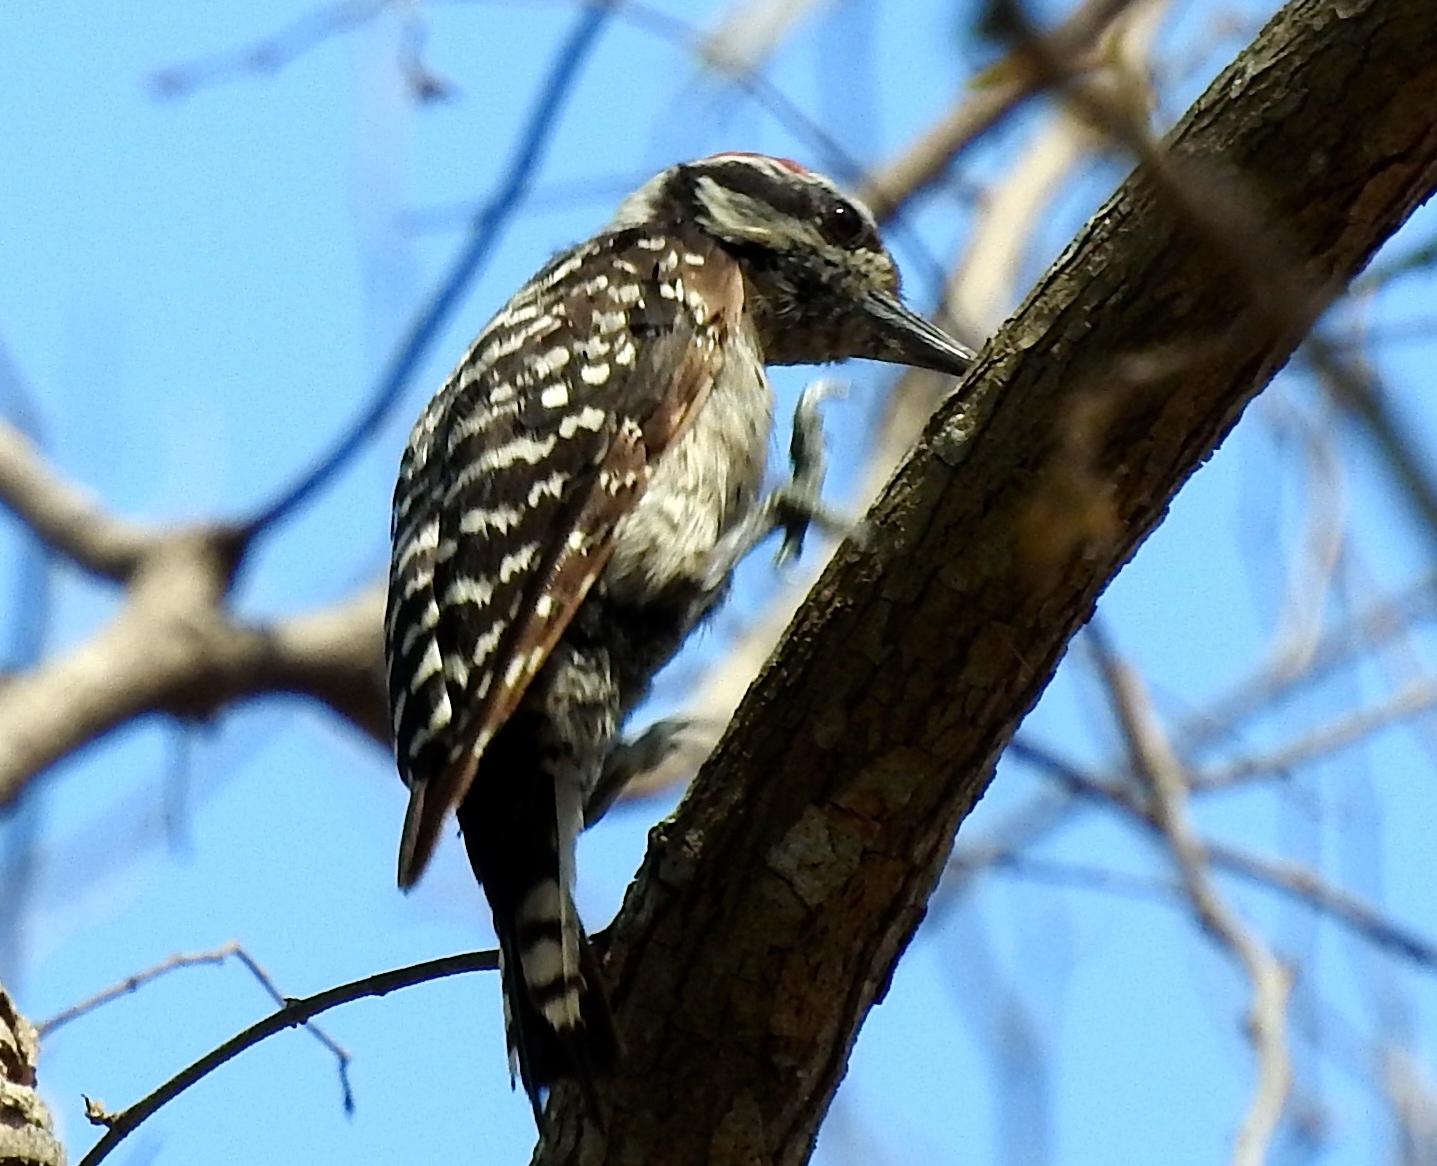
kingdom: Animalia
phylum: Chordata
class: Aves
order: Piciformes
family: Picidae
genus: Dryobates
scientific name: Dryobates scalaris
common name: Ladder-backed woodpecker
